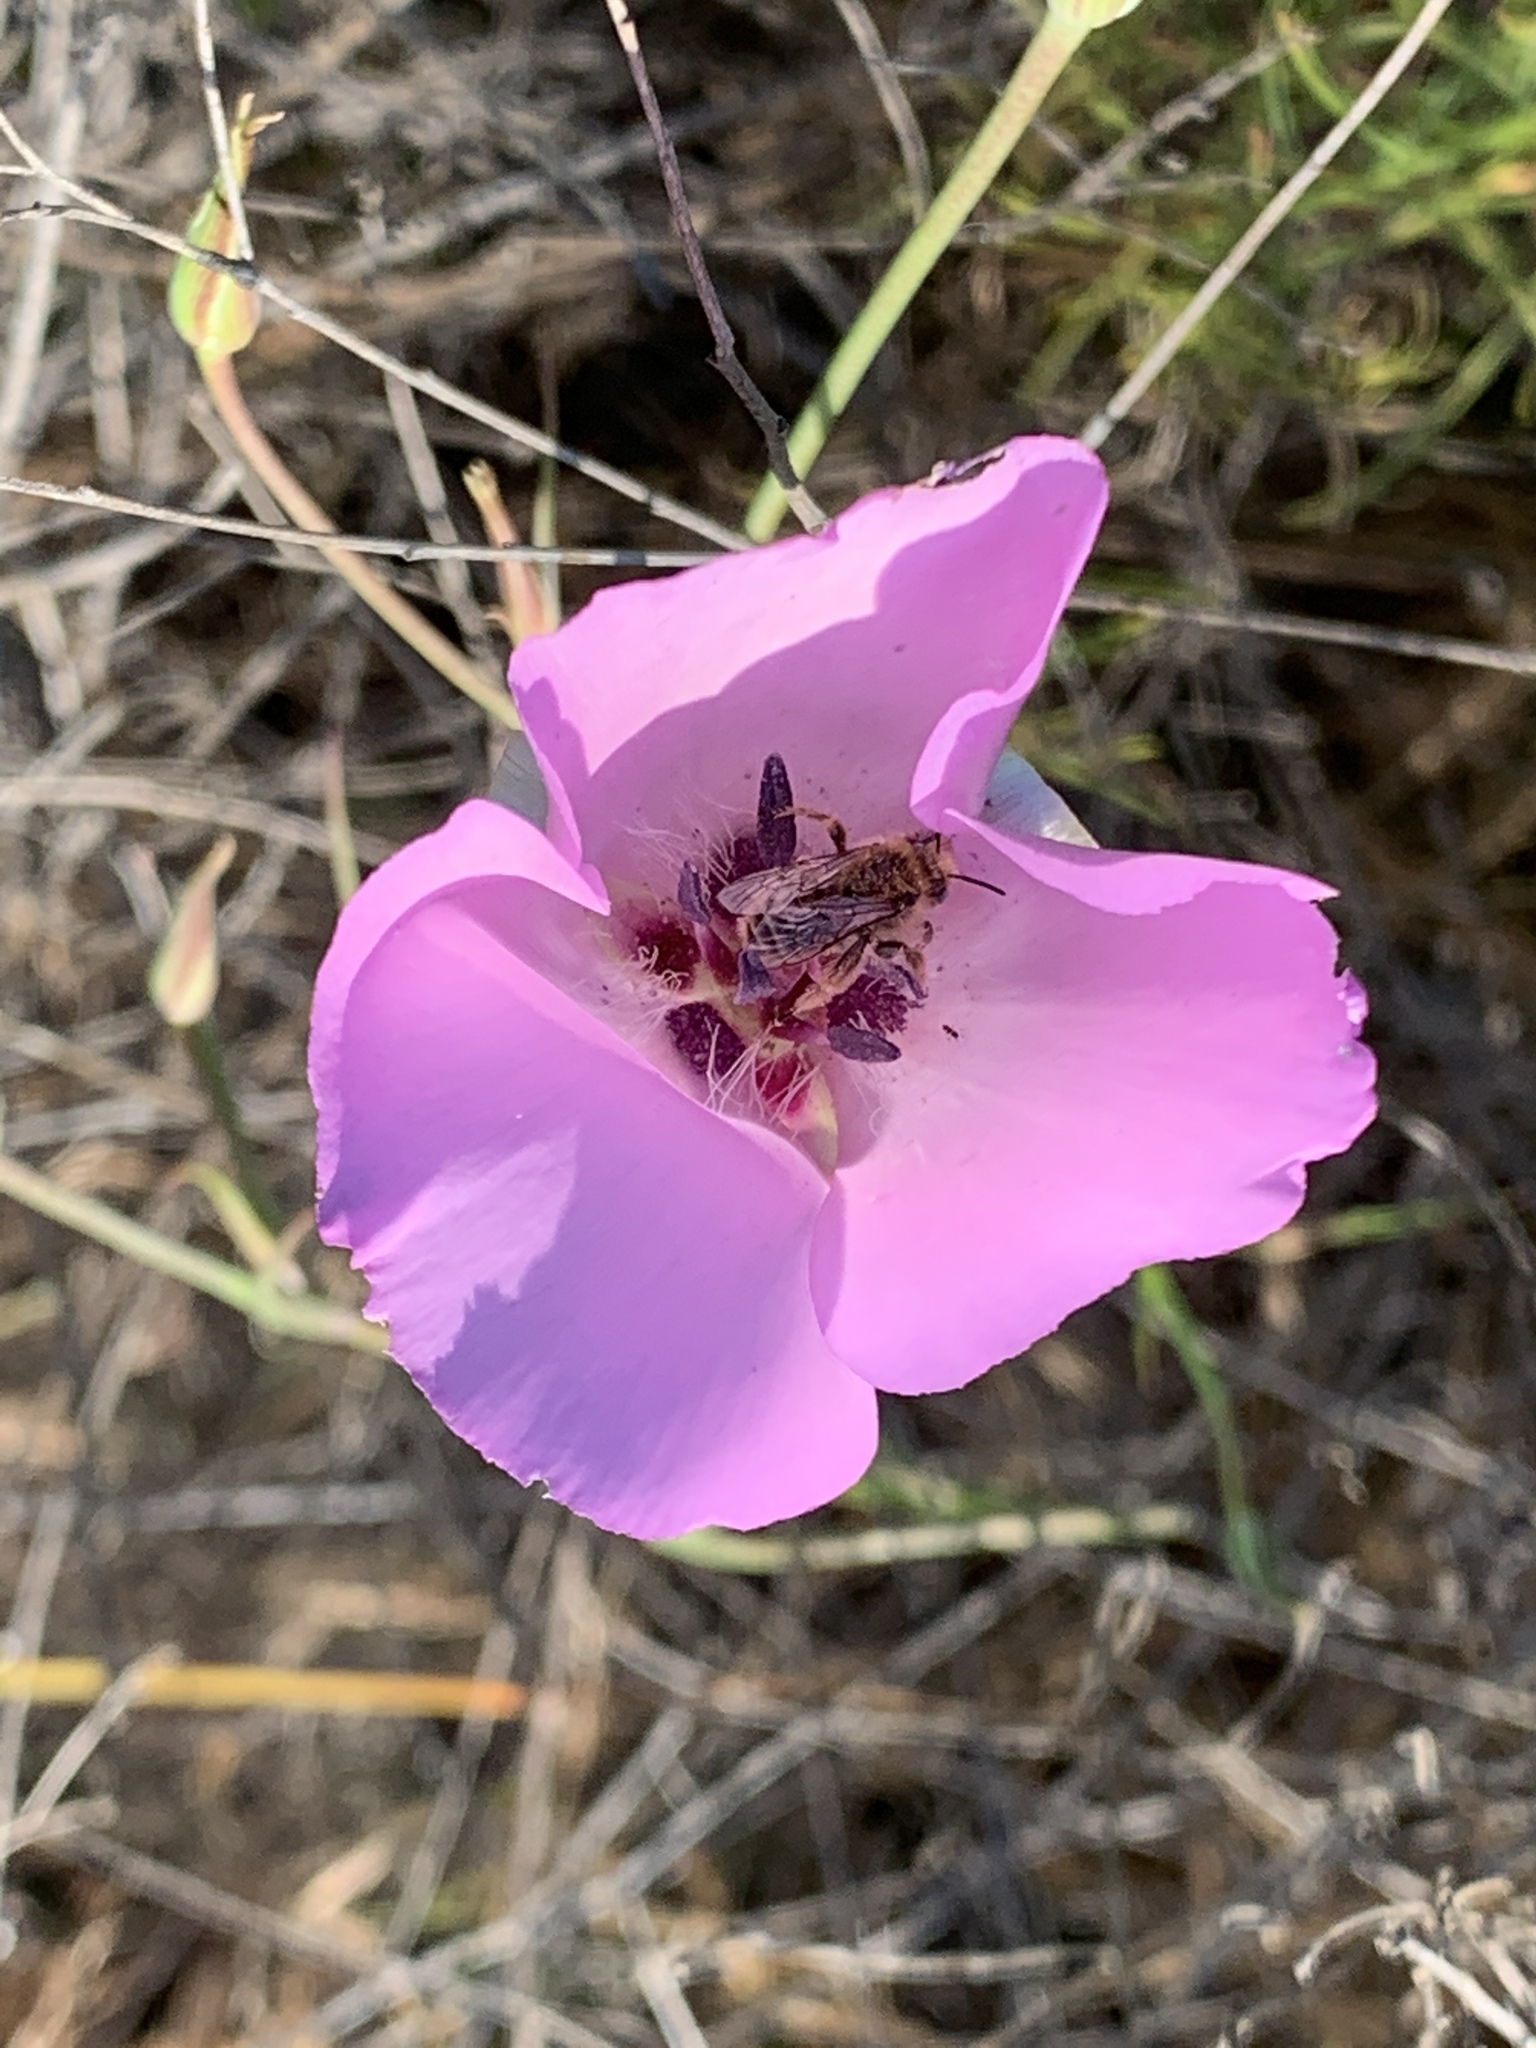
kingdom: Plantae
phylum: Tracheophyta
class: Liliopsida
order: Liliales
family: Liliaceae
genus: Calochortus
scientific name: Calochortus splendens
